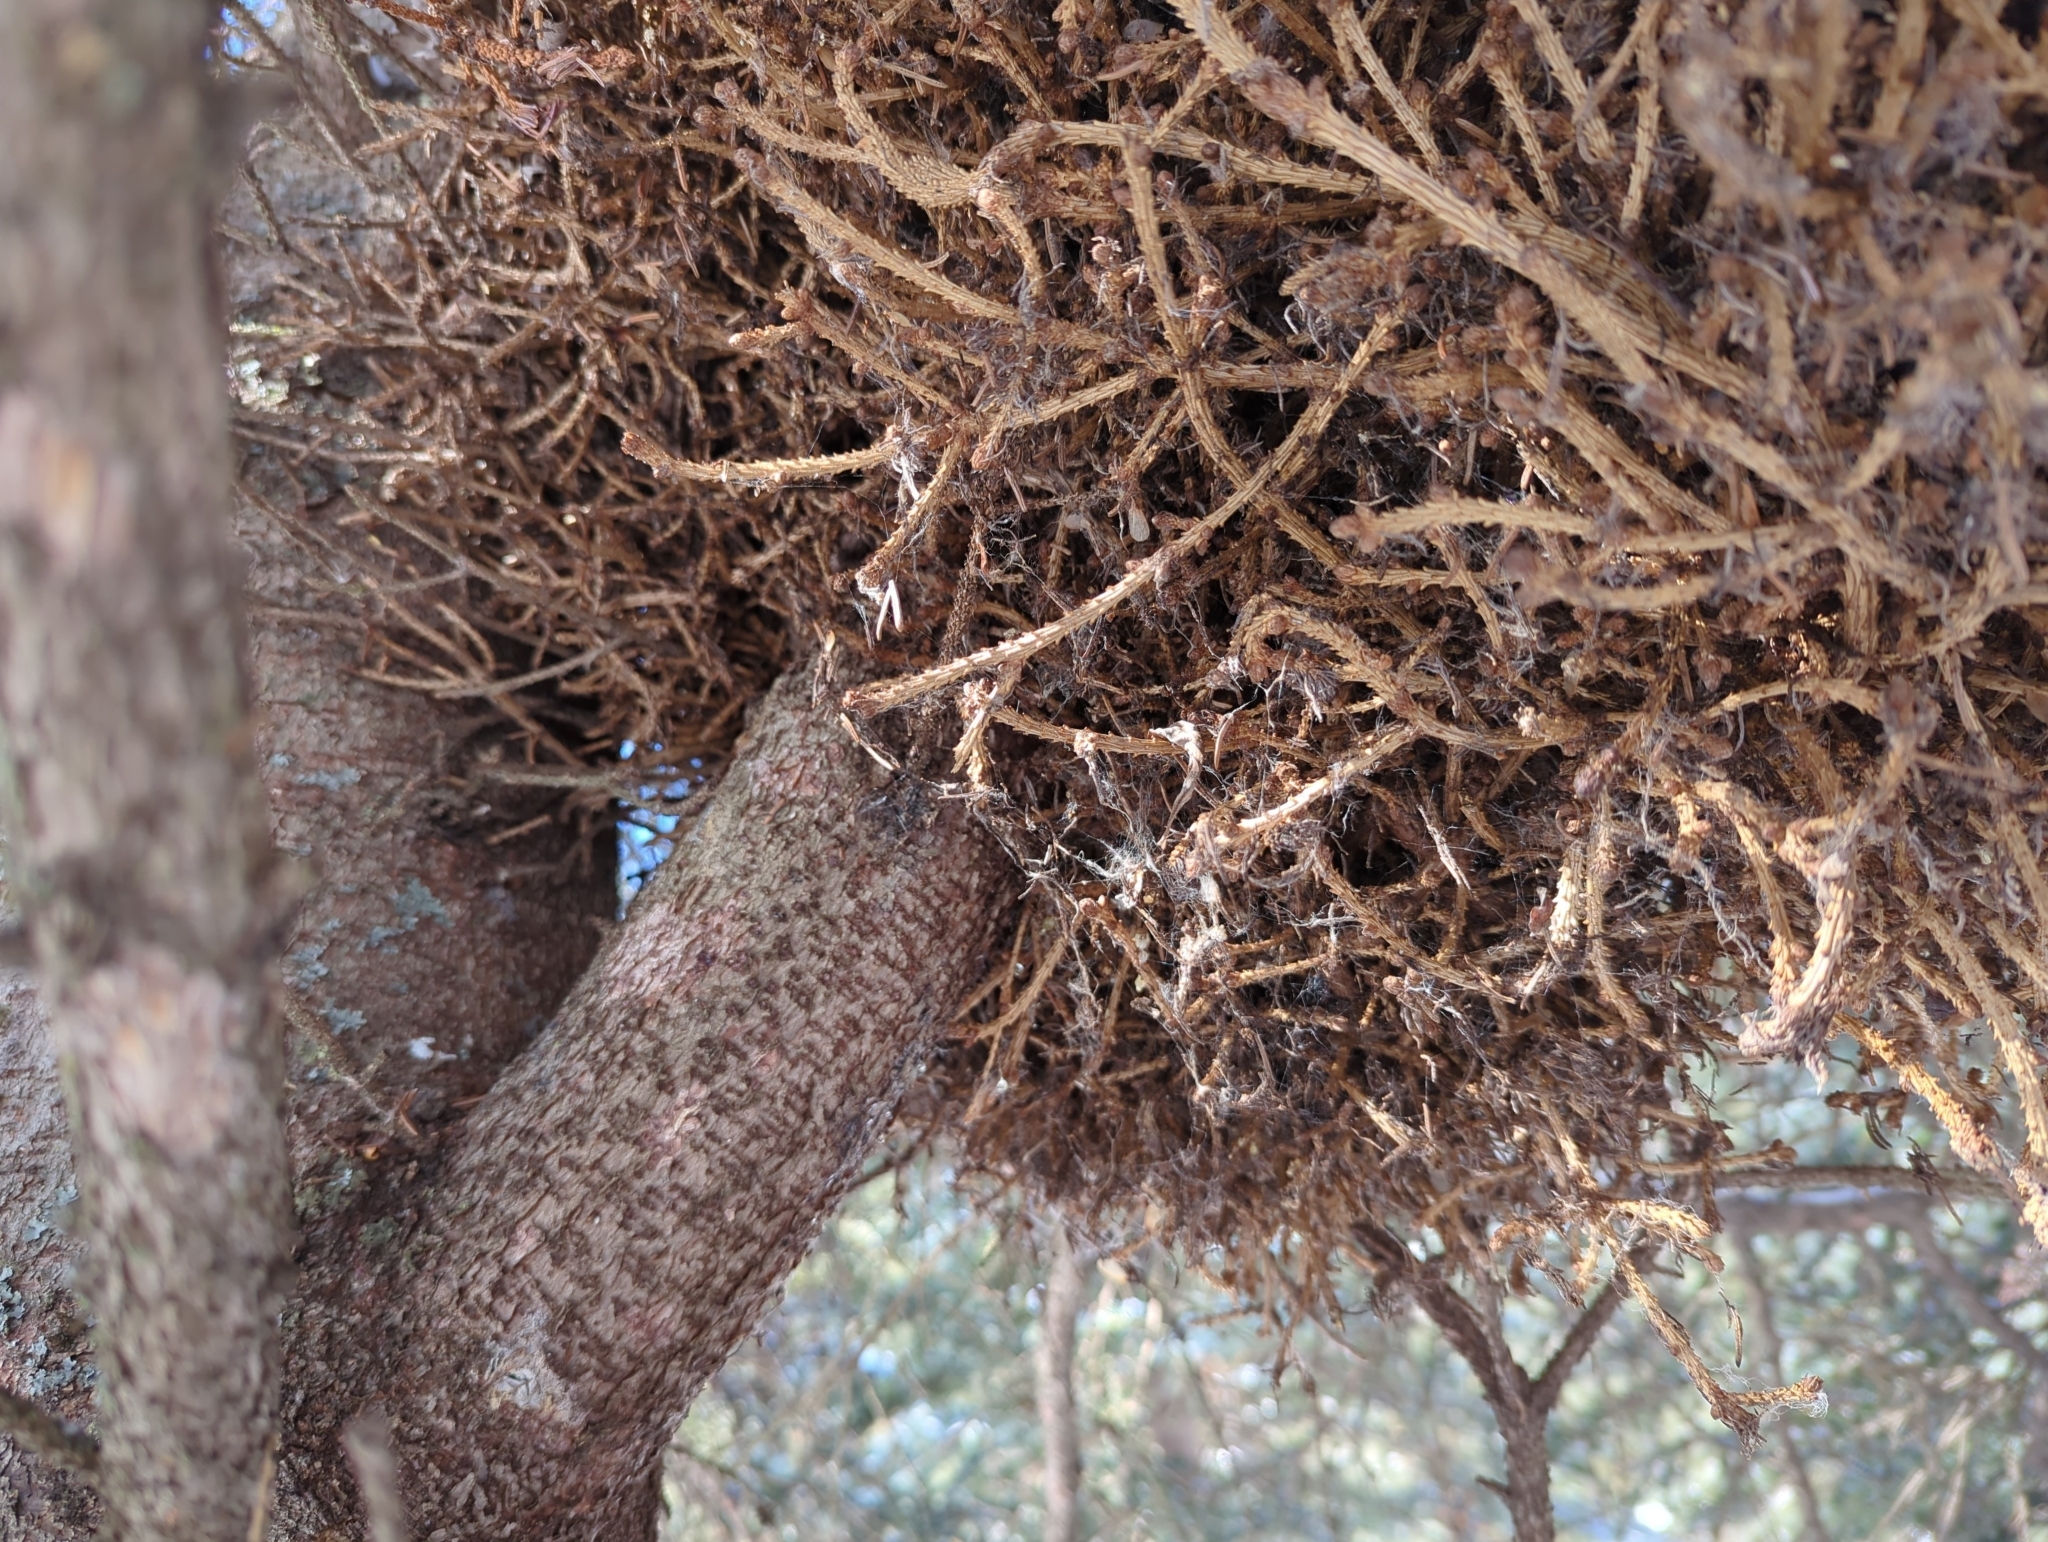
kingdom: Fungi
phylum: Basidiomycota
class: Pucciniomycetes
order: Pucciniales
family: Coleosporiaceae
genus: Chrysomyxa
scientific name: Chrysomyxa arctostaphyli
